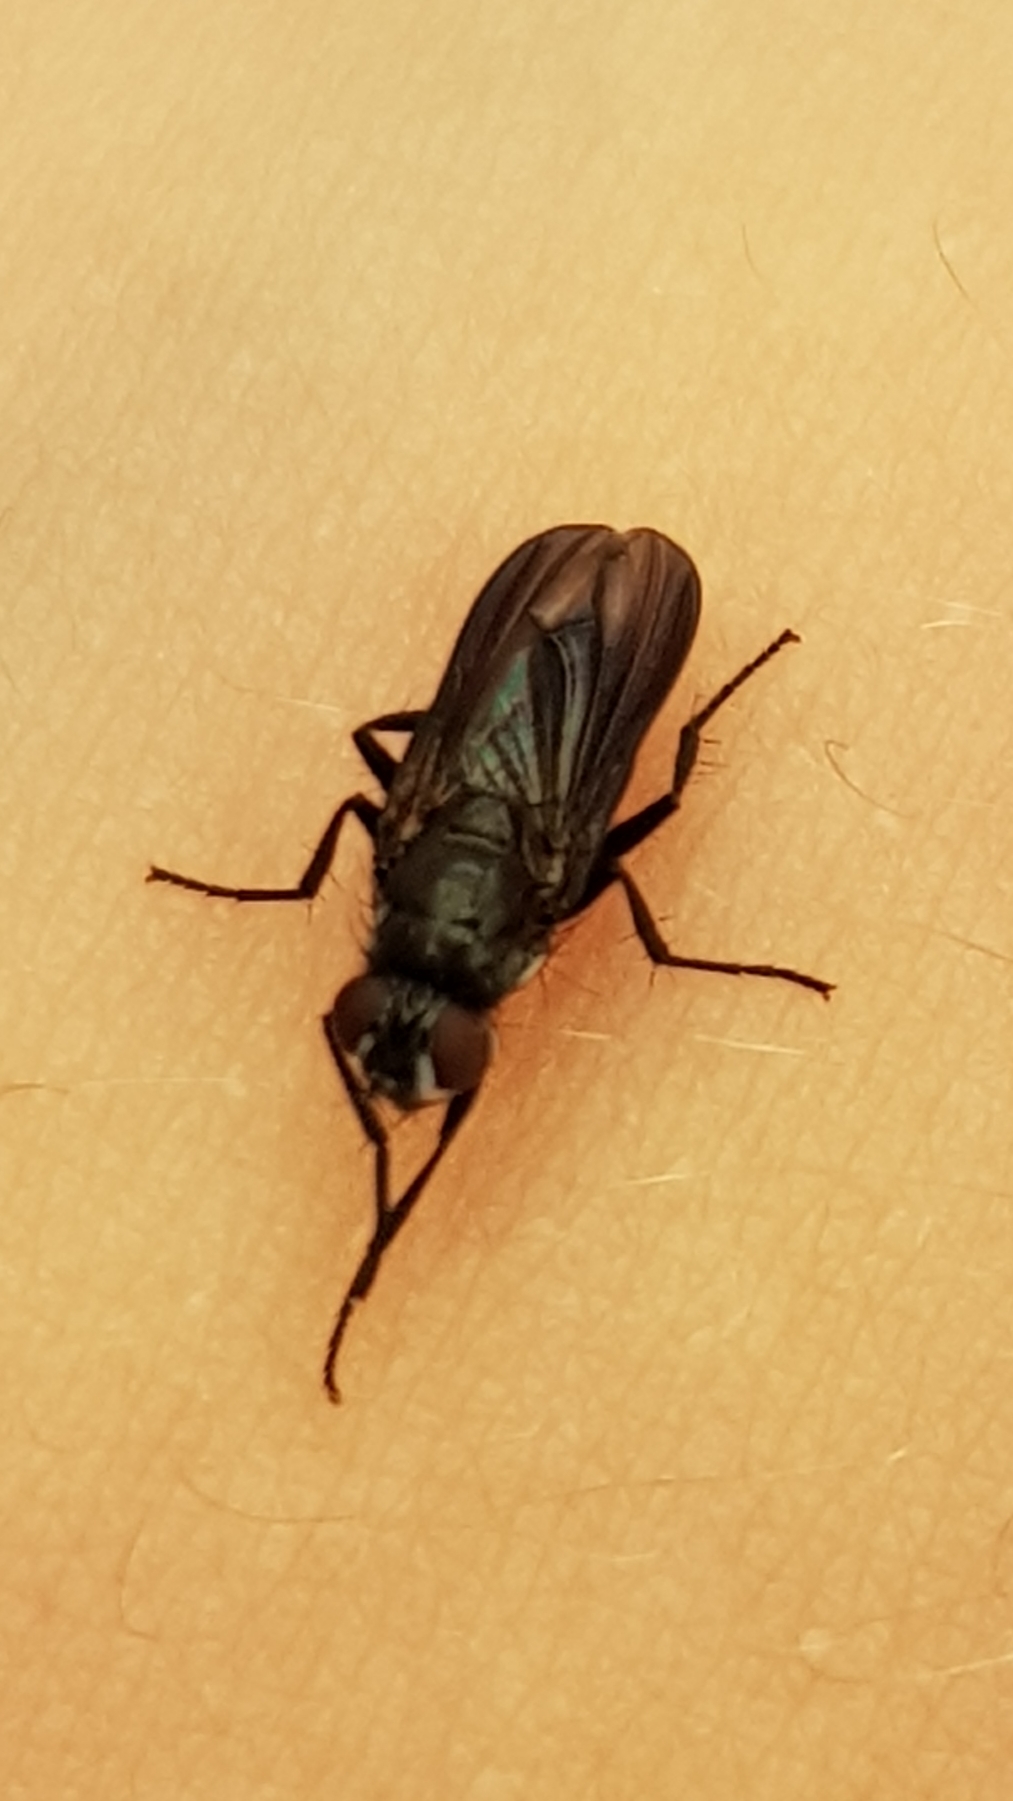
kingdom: Animalia
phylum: Arthropoda
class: Insecta
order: Diptera
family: Polleniidae
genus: Morinia
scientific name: Morinia doronici
